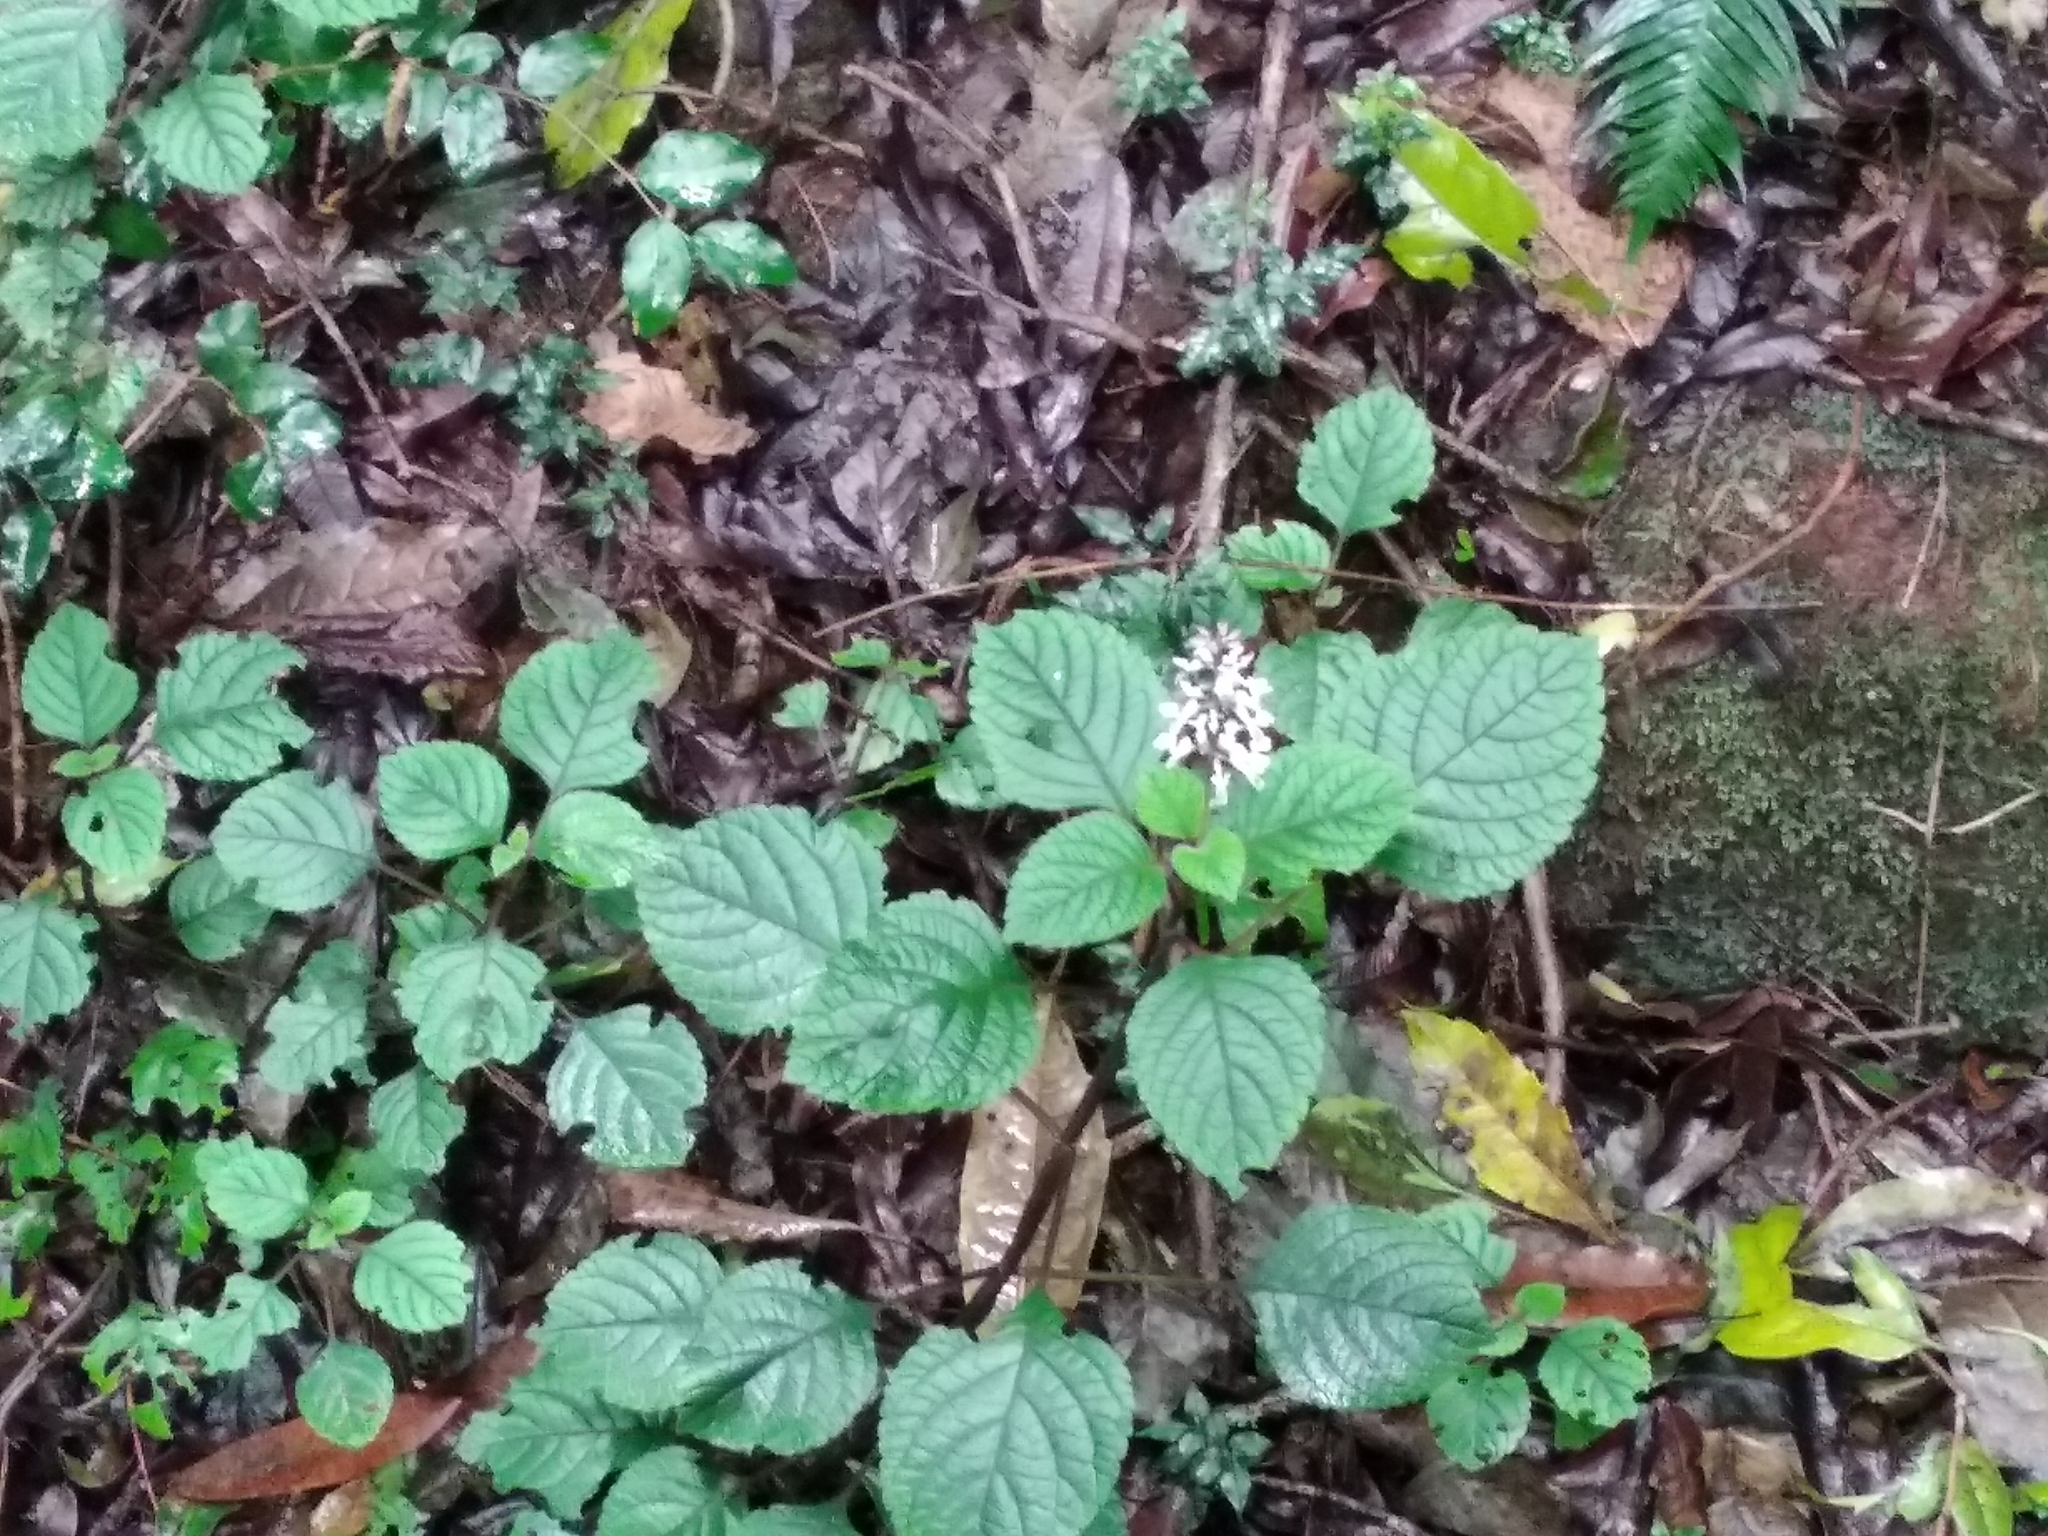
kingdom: Plantae
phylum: Tracheophyta
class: Magnoliopsida
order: Lamiales
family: Lamiaceae
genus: Plectranthus
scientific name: Plectranthus ciliatus
